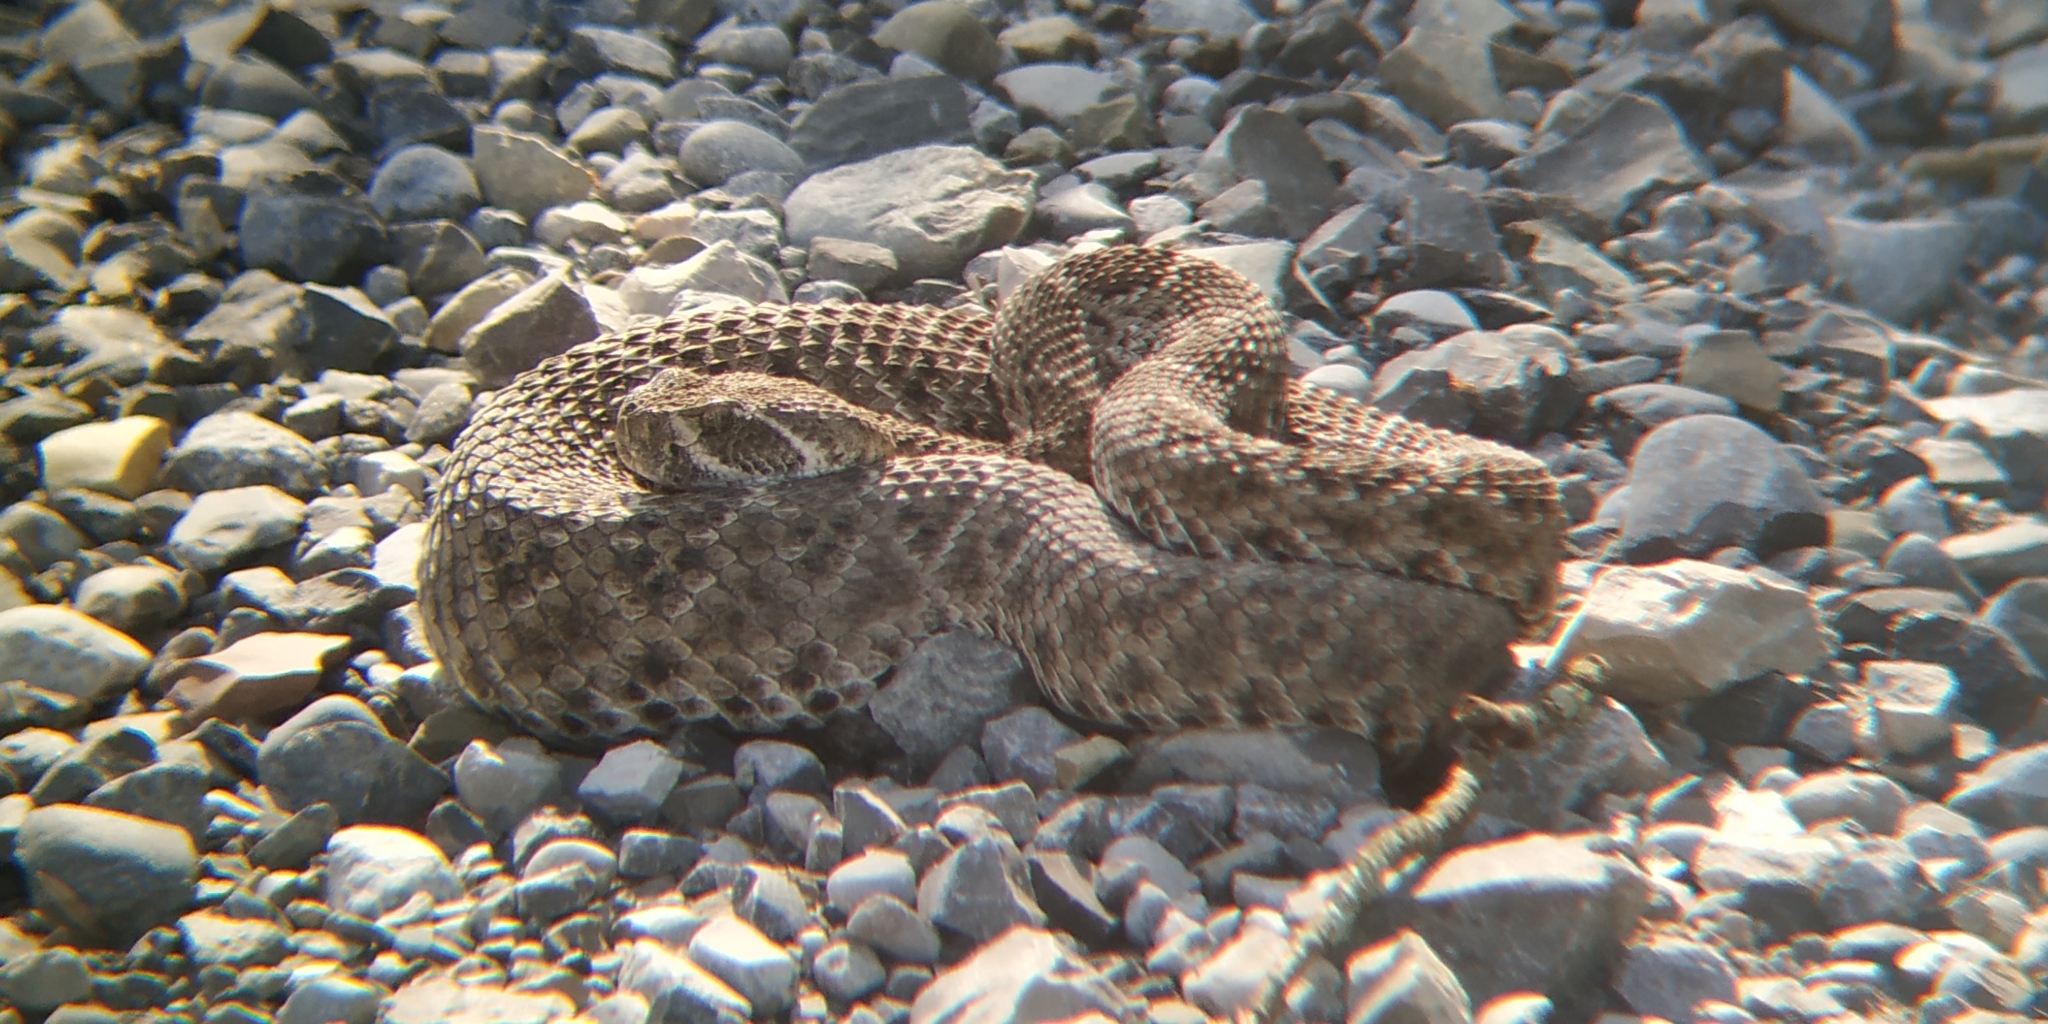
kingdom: Animalia
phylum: Chordata
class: Squamata
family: Viperidae
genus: Crotalus
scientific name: Crotalus atrox
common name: Western diamond-backed rattlesnake
